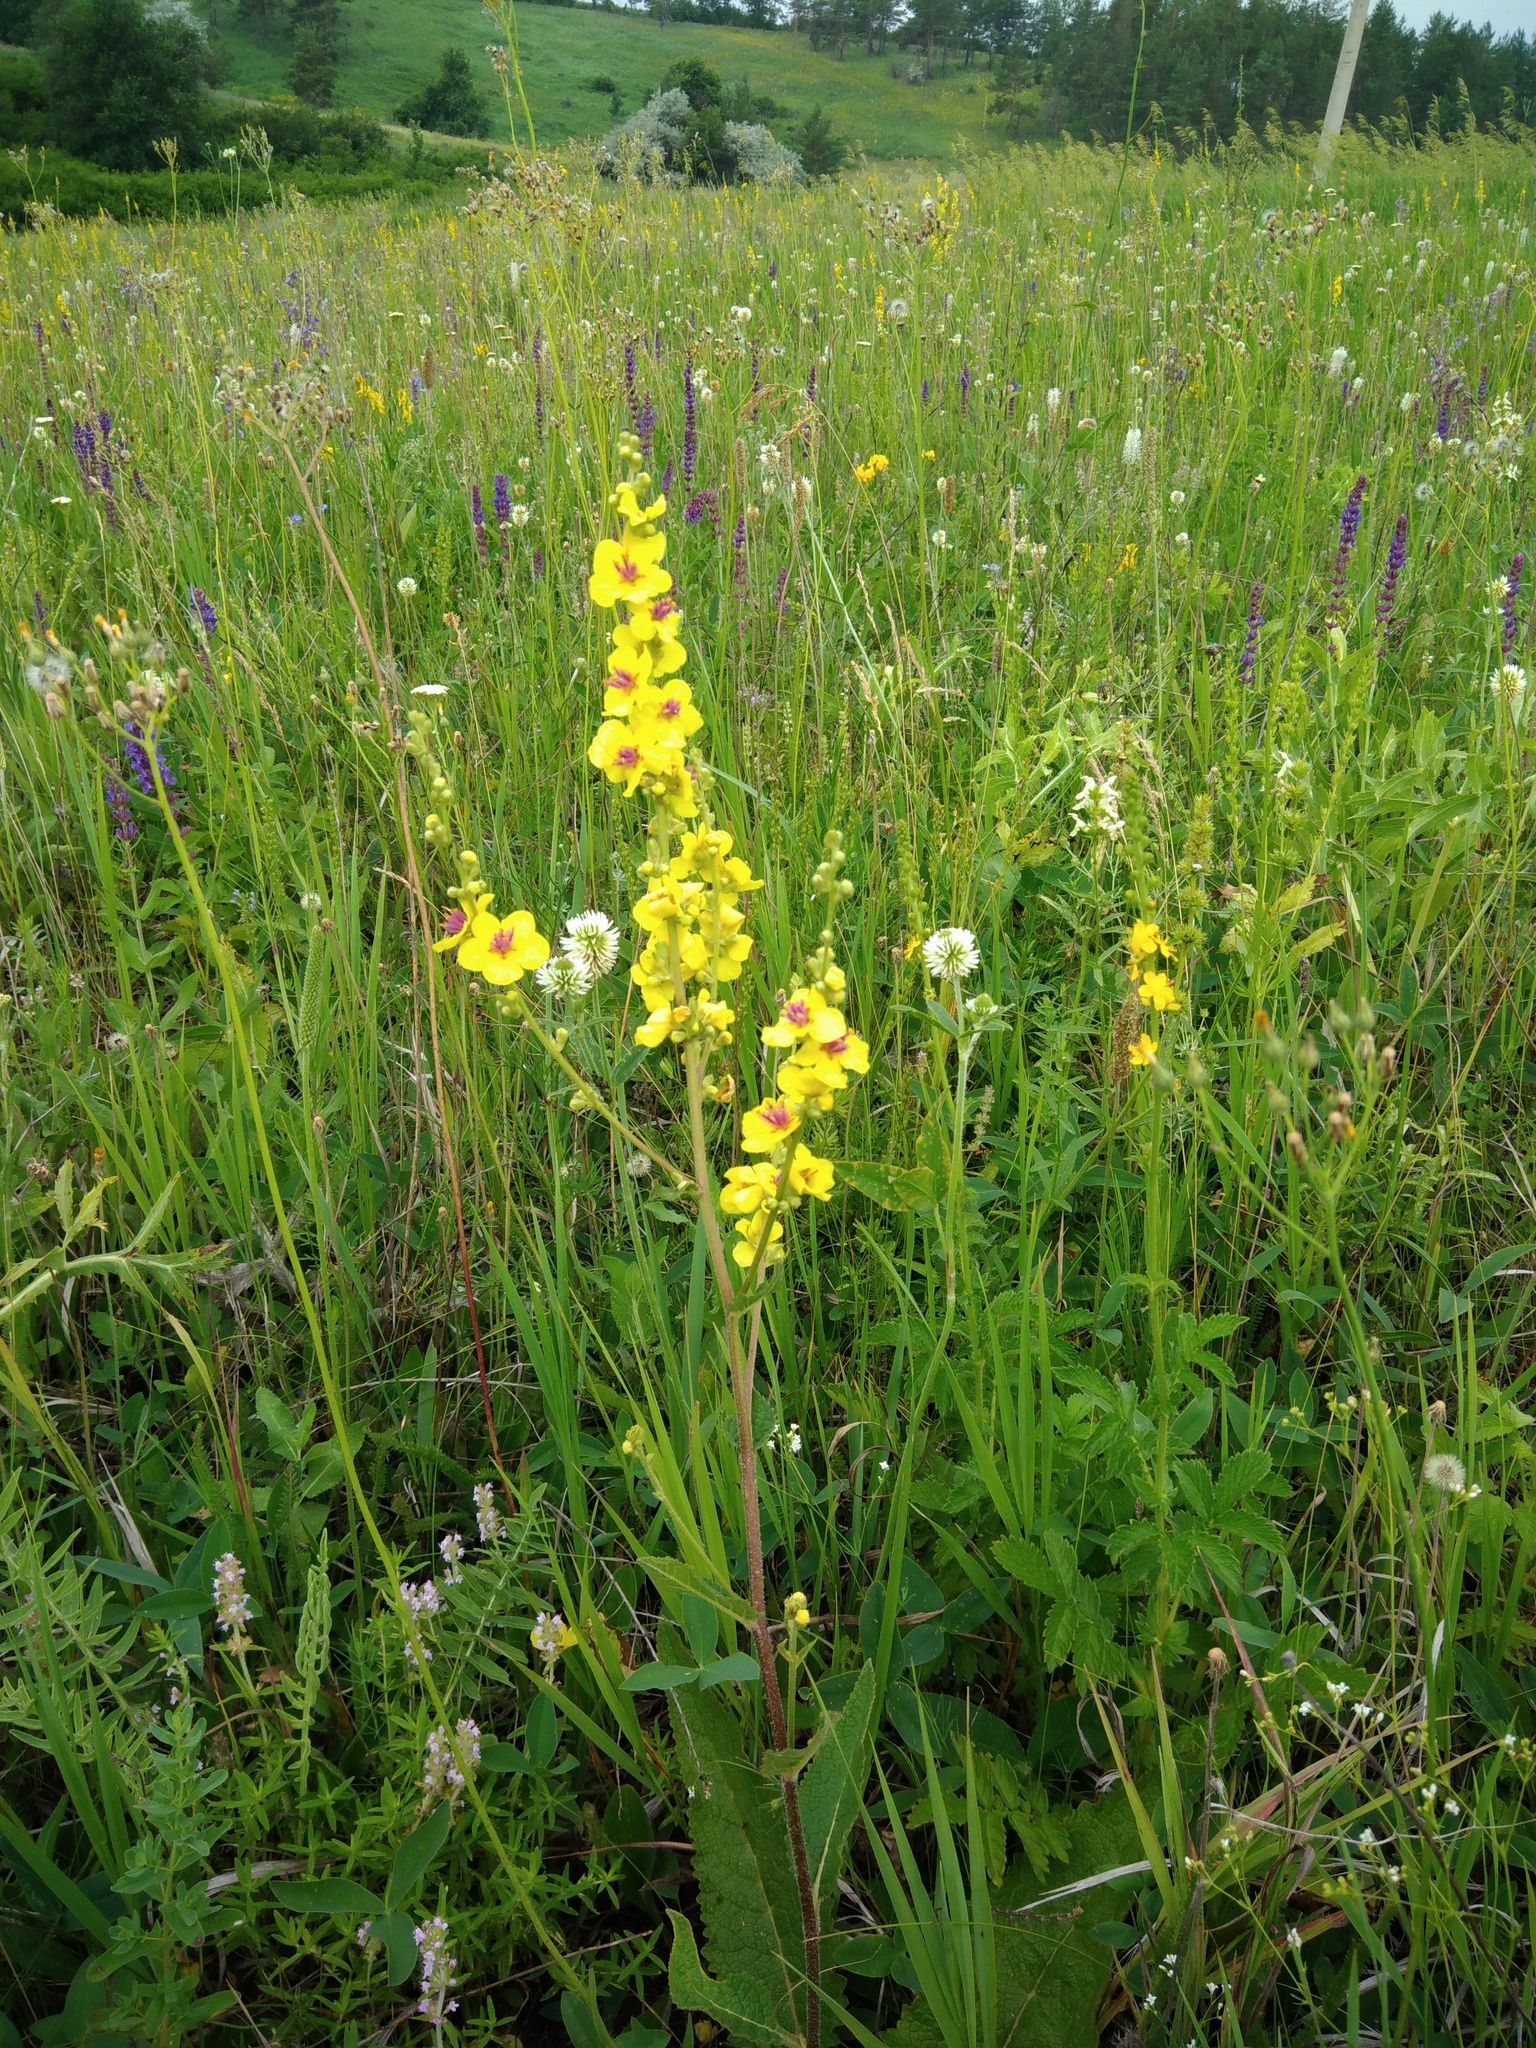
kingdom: Plantae
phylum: Tracheophyta
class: Magnoliopsida
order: Lamiales
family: Scrophulariaceae
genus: Verbascum
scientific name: Verbascum chaixii
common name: Nettle-leaved mullein
